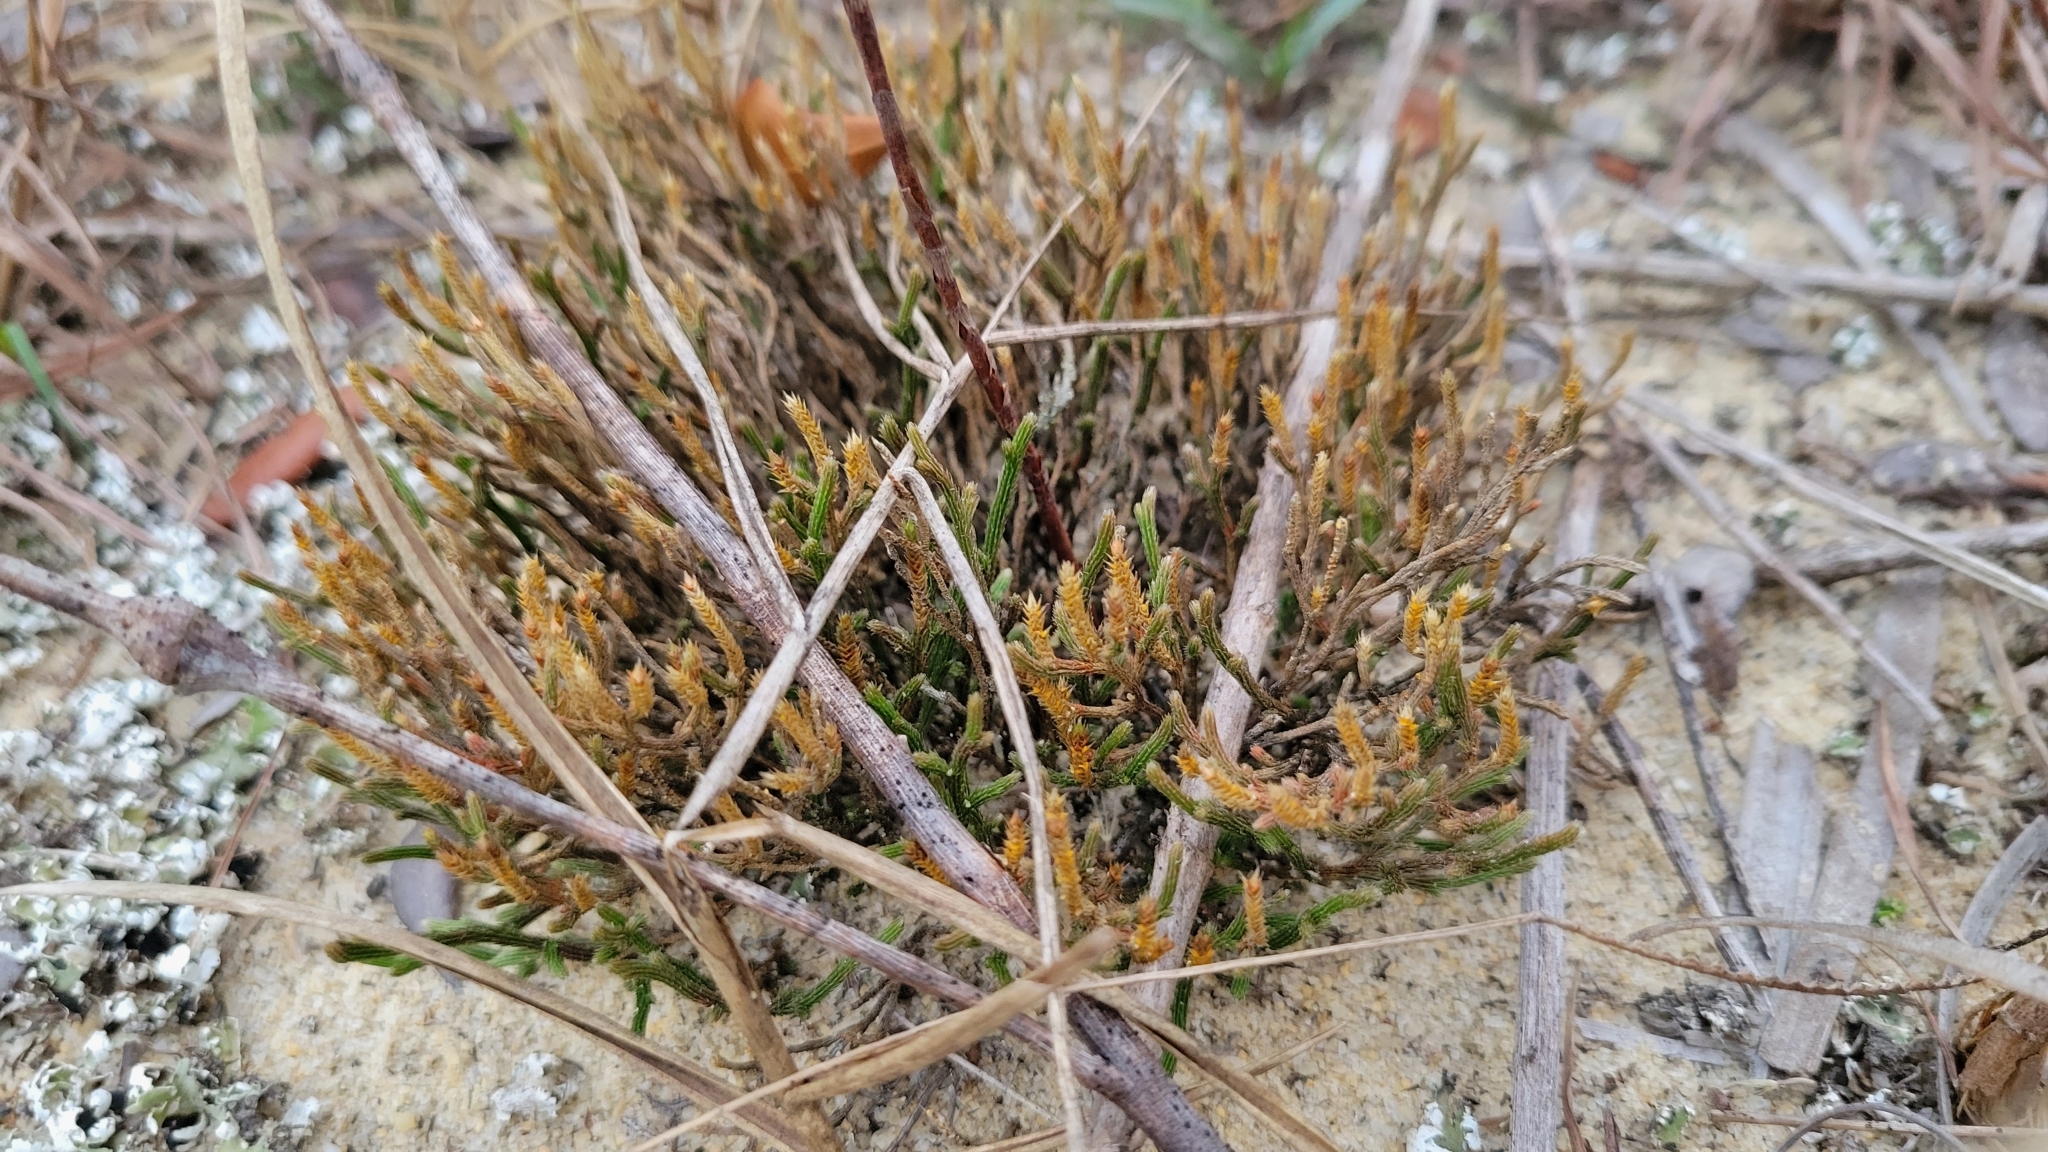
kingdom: Plantae
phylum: Tracheophyta
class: Lycopodiopsida
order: Selaginellales
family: Selaginellaceae
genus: Selaginella
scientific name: Selaginella arenicola
